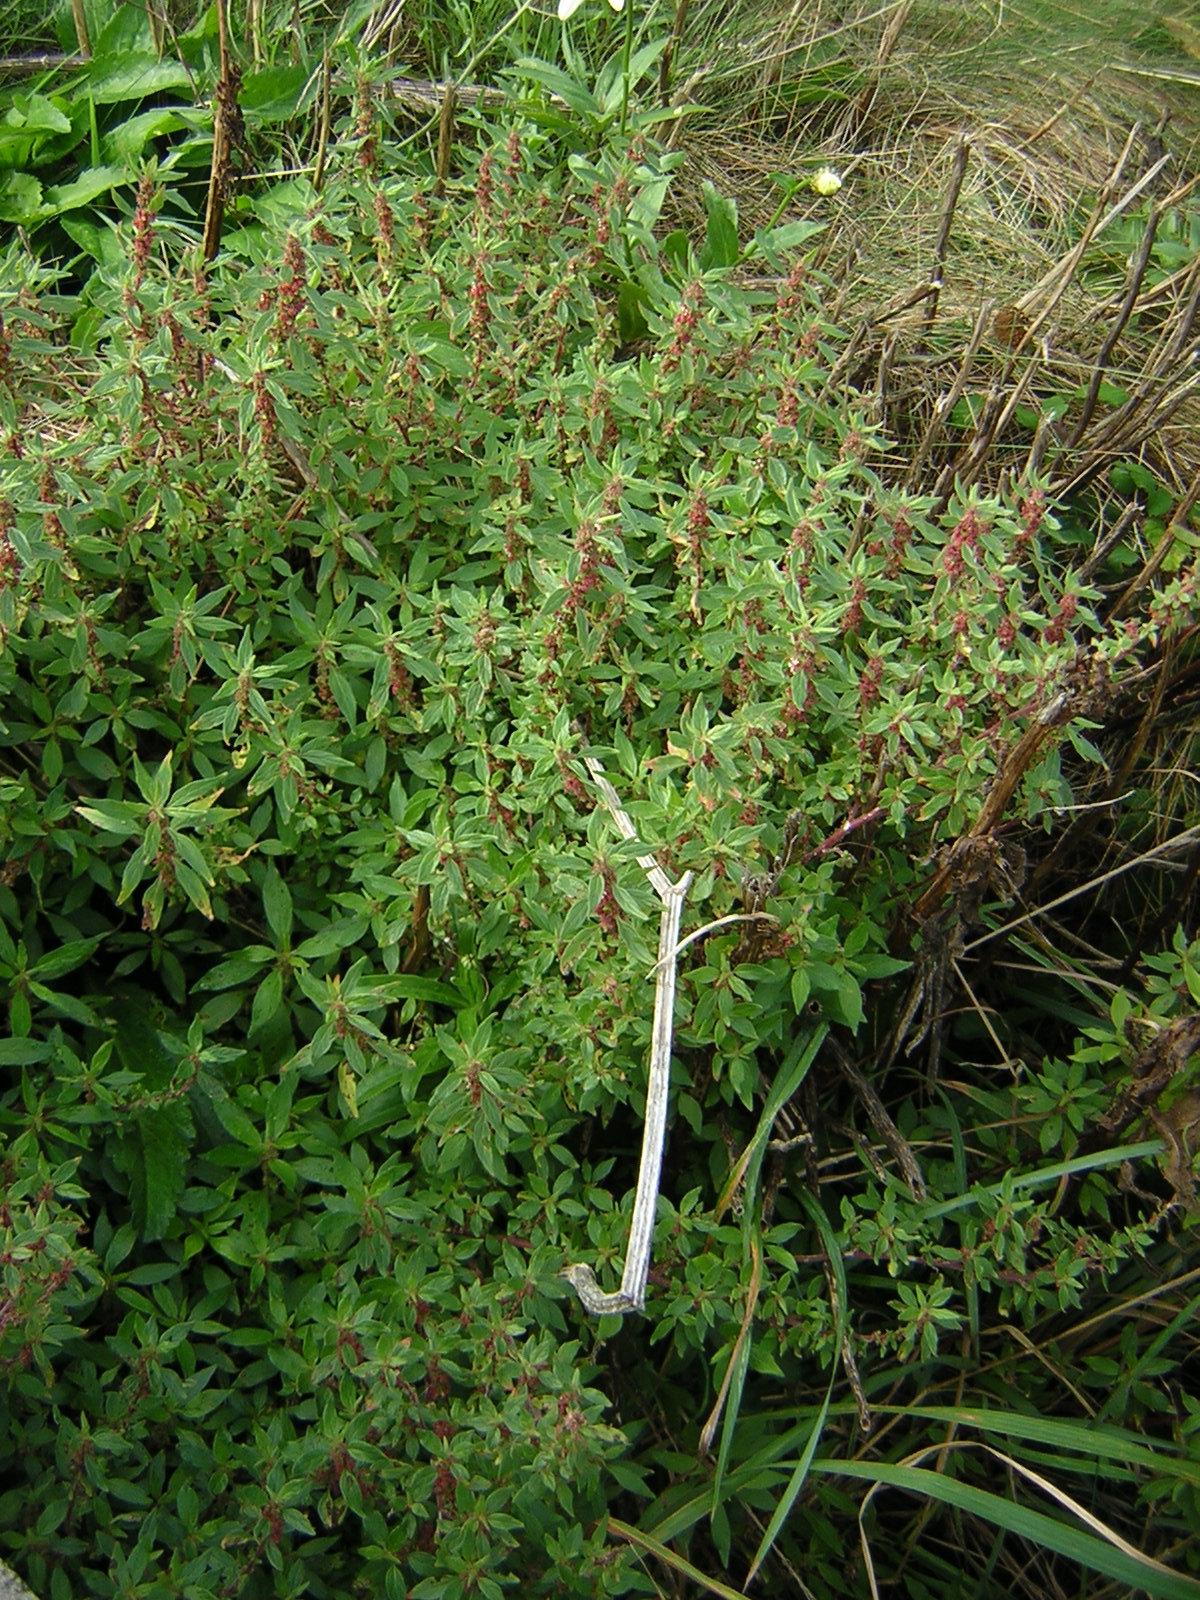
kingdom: Plantae
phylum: Tracheophyta
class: Magnoliopsida
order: Rosales
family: Urticaceae
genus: Parietaria
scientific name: Parietaria judaica
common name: Pellitory-of-the-wall
